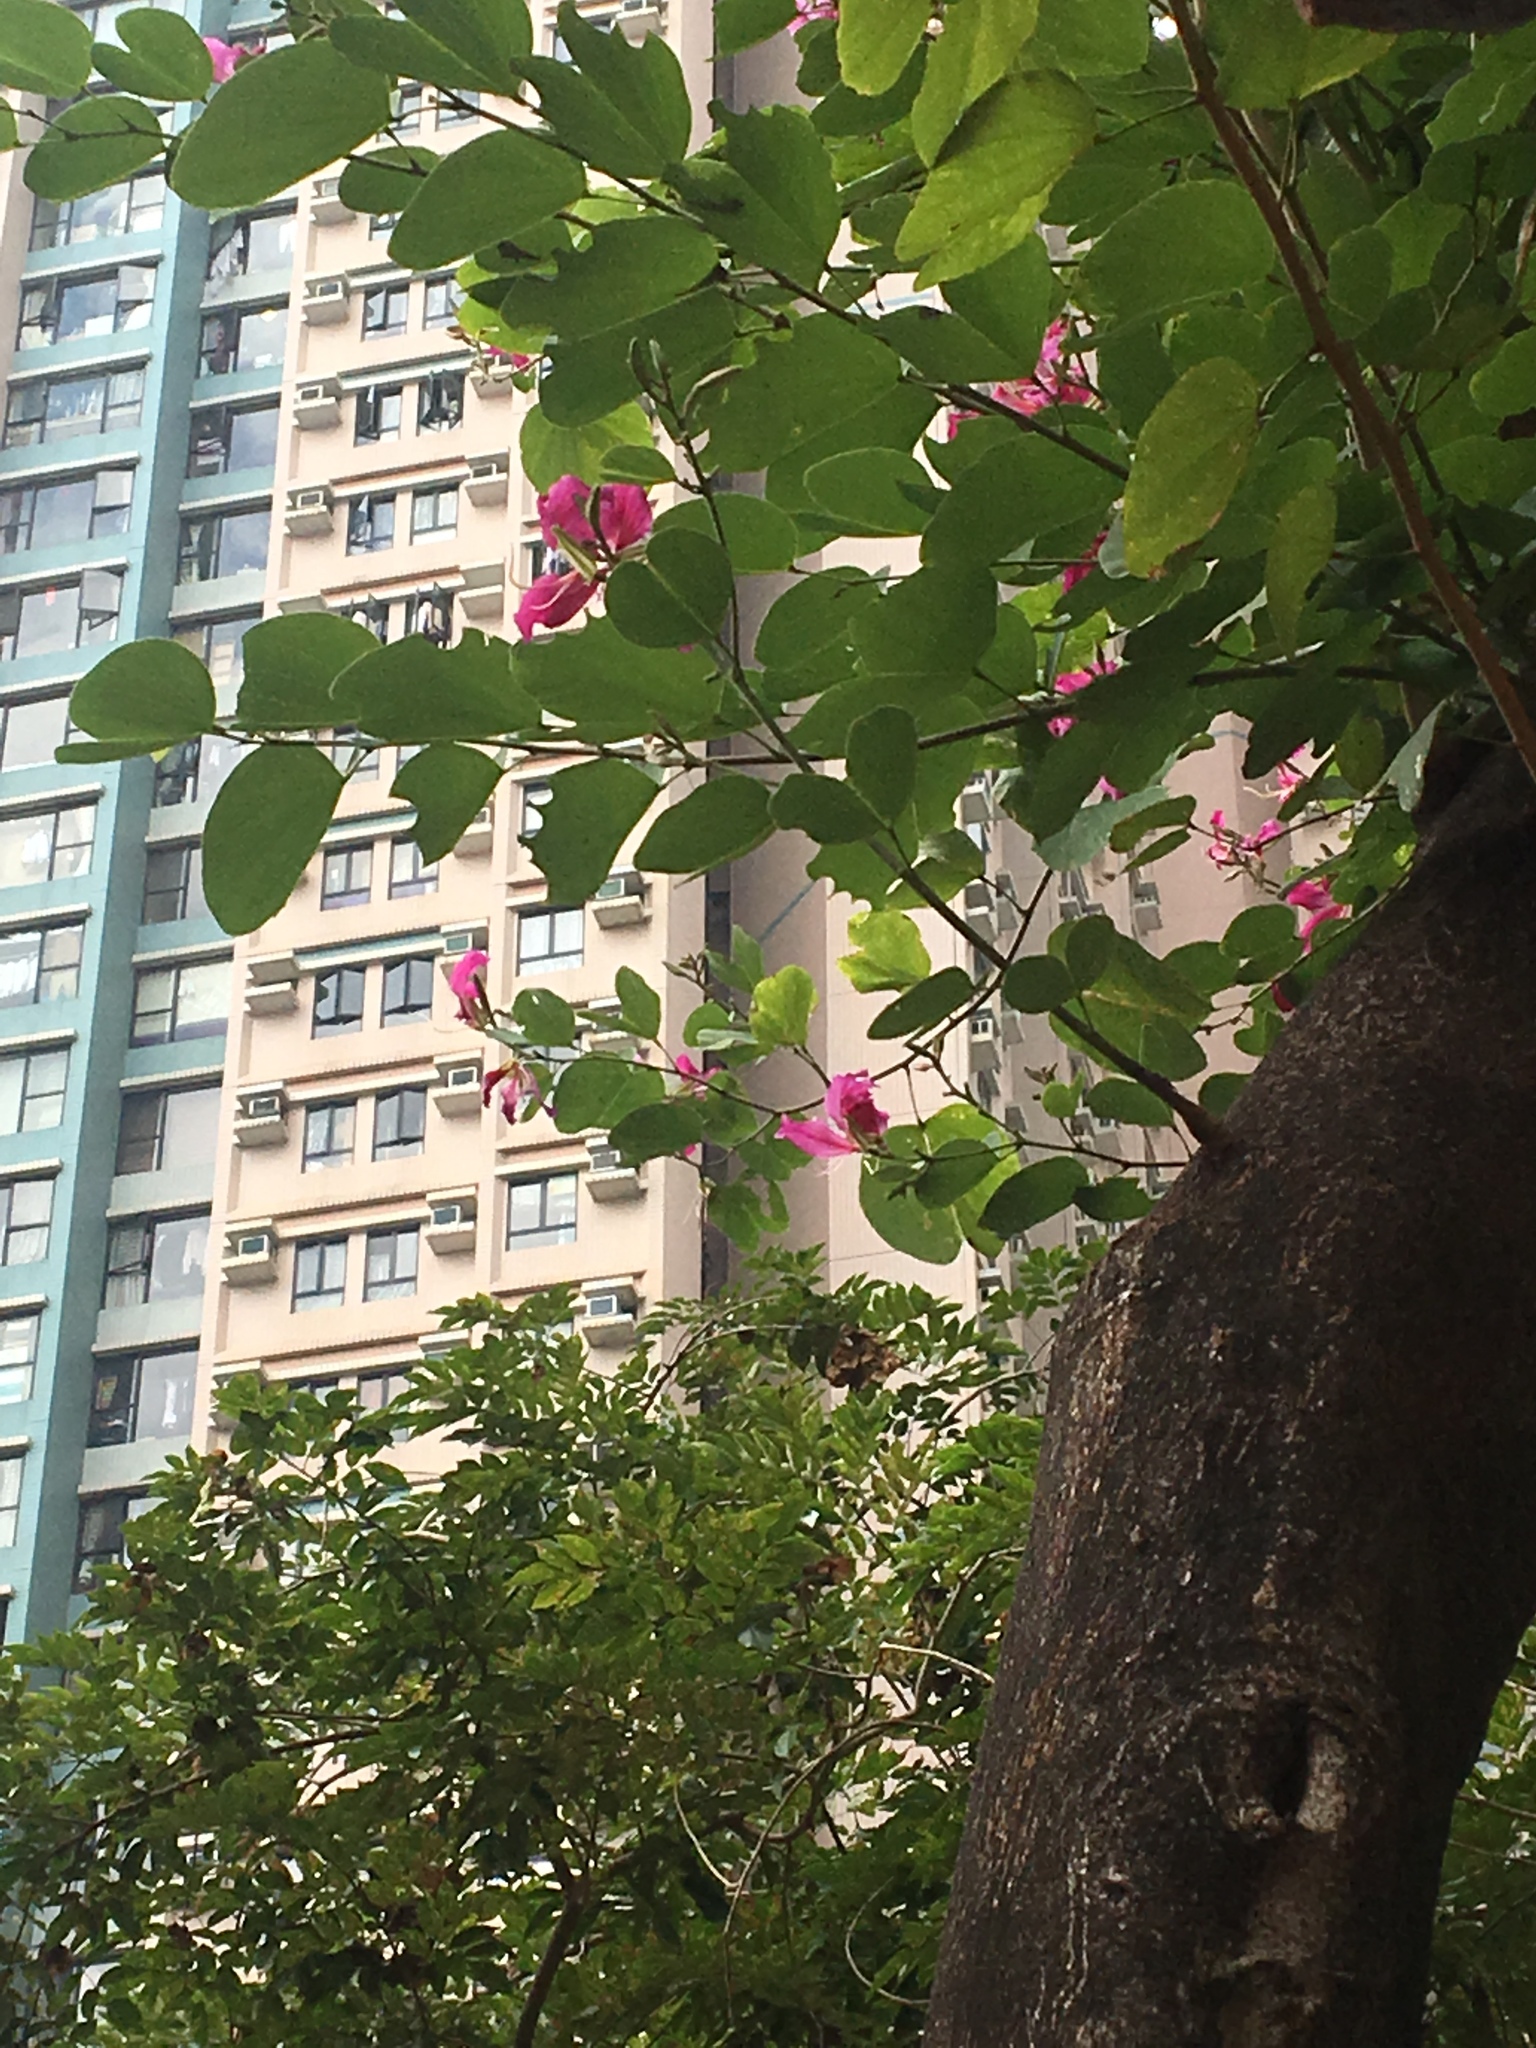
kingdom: Plantae
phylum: Tracheophyta
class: Magnoliopsida
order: Fabales
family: Fabaceae
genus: Bauhinia
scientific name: Bauhinia blakeana
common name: Bauhinia
